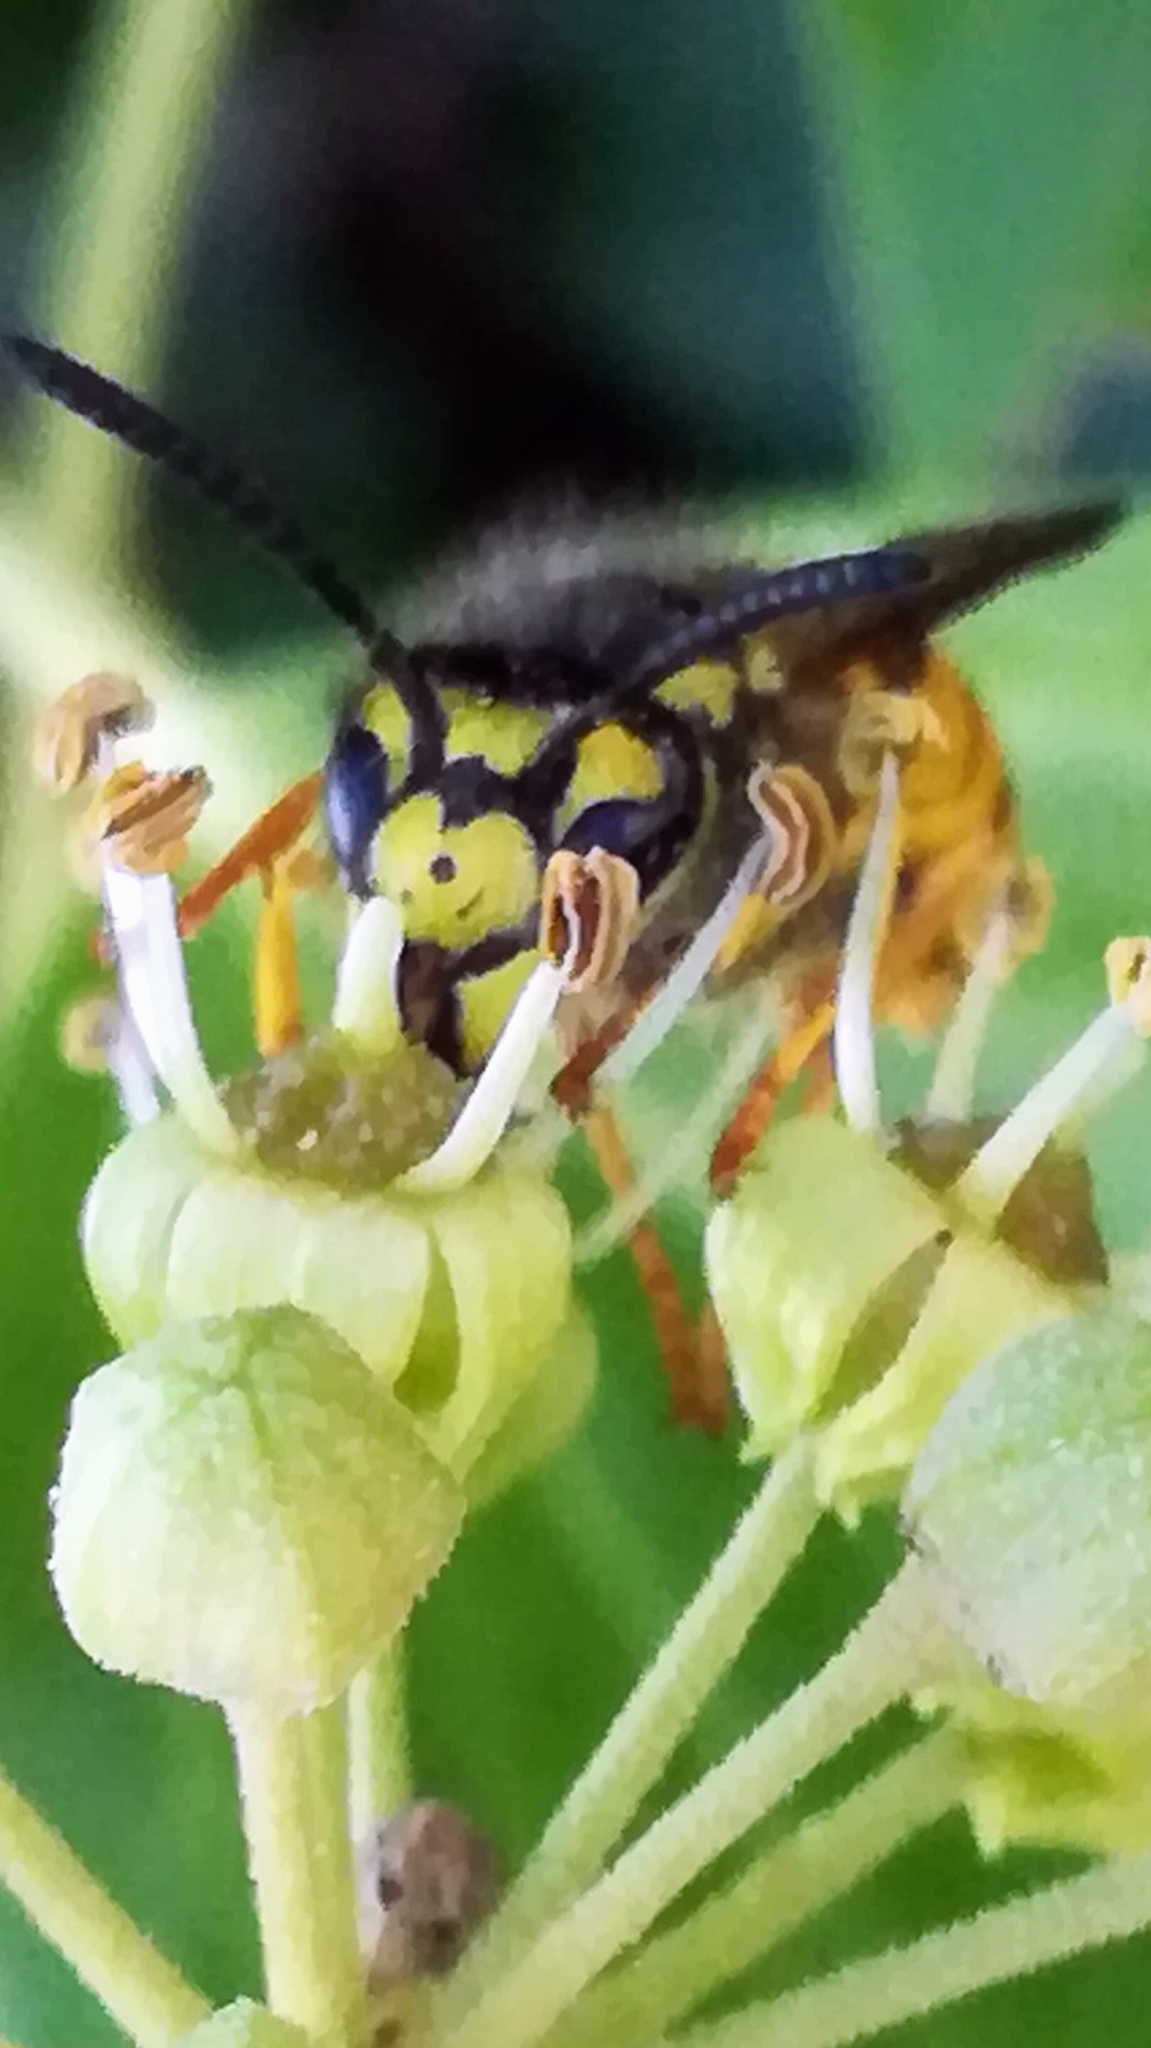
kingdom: Animalia
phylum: Arthropoda
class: Insecta
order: Hymenoptera
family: Vespidae
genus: Vespula
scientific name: Vespula germanica
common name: German wasp
